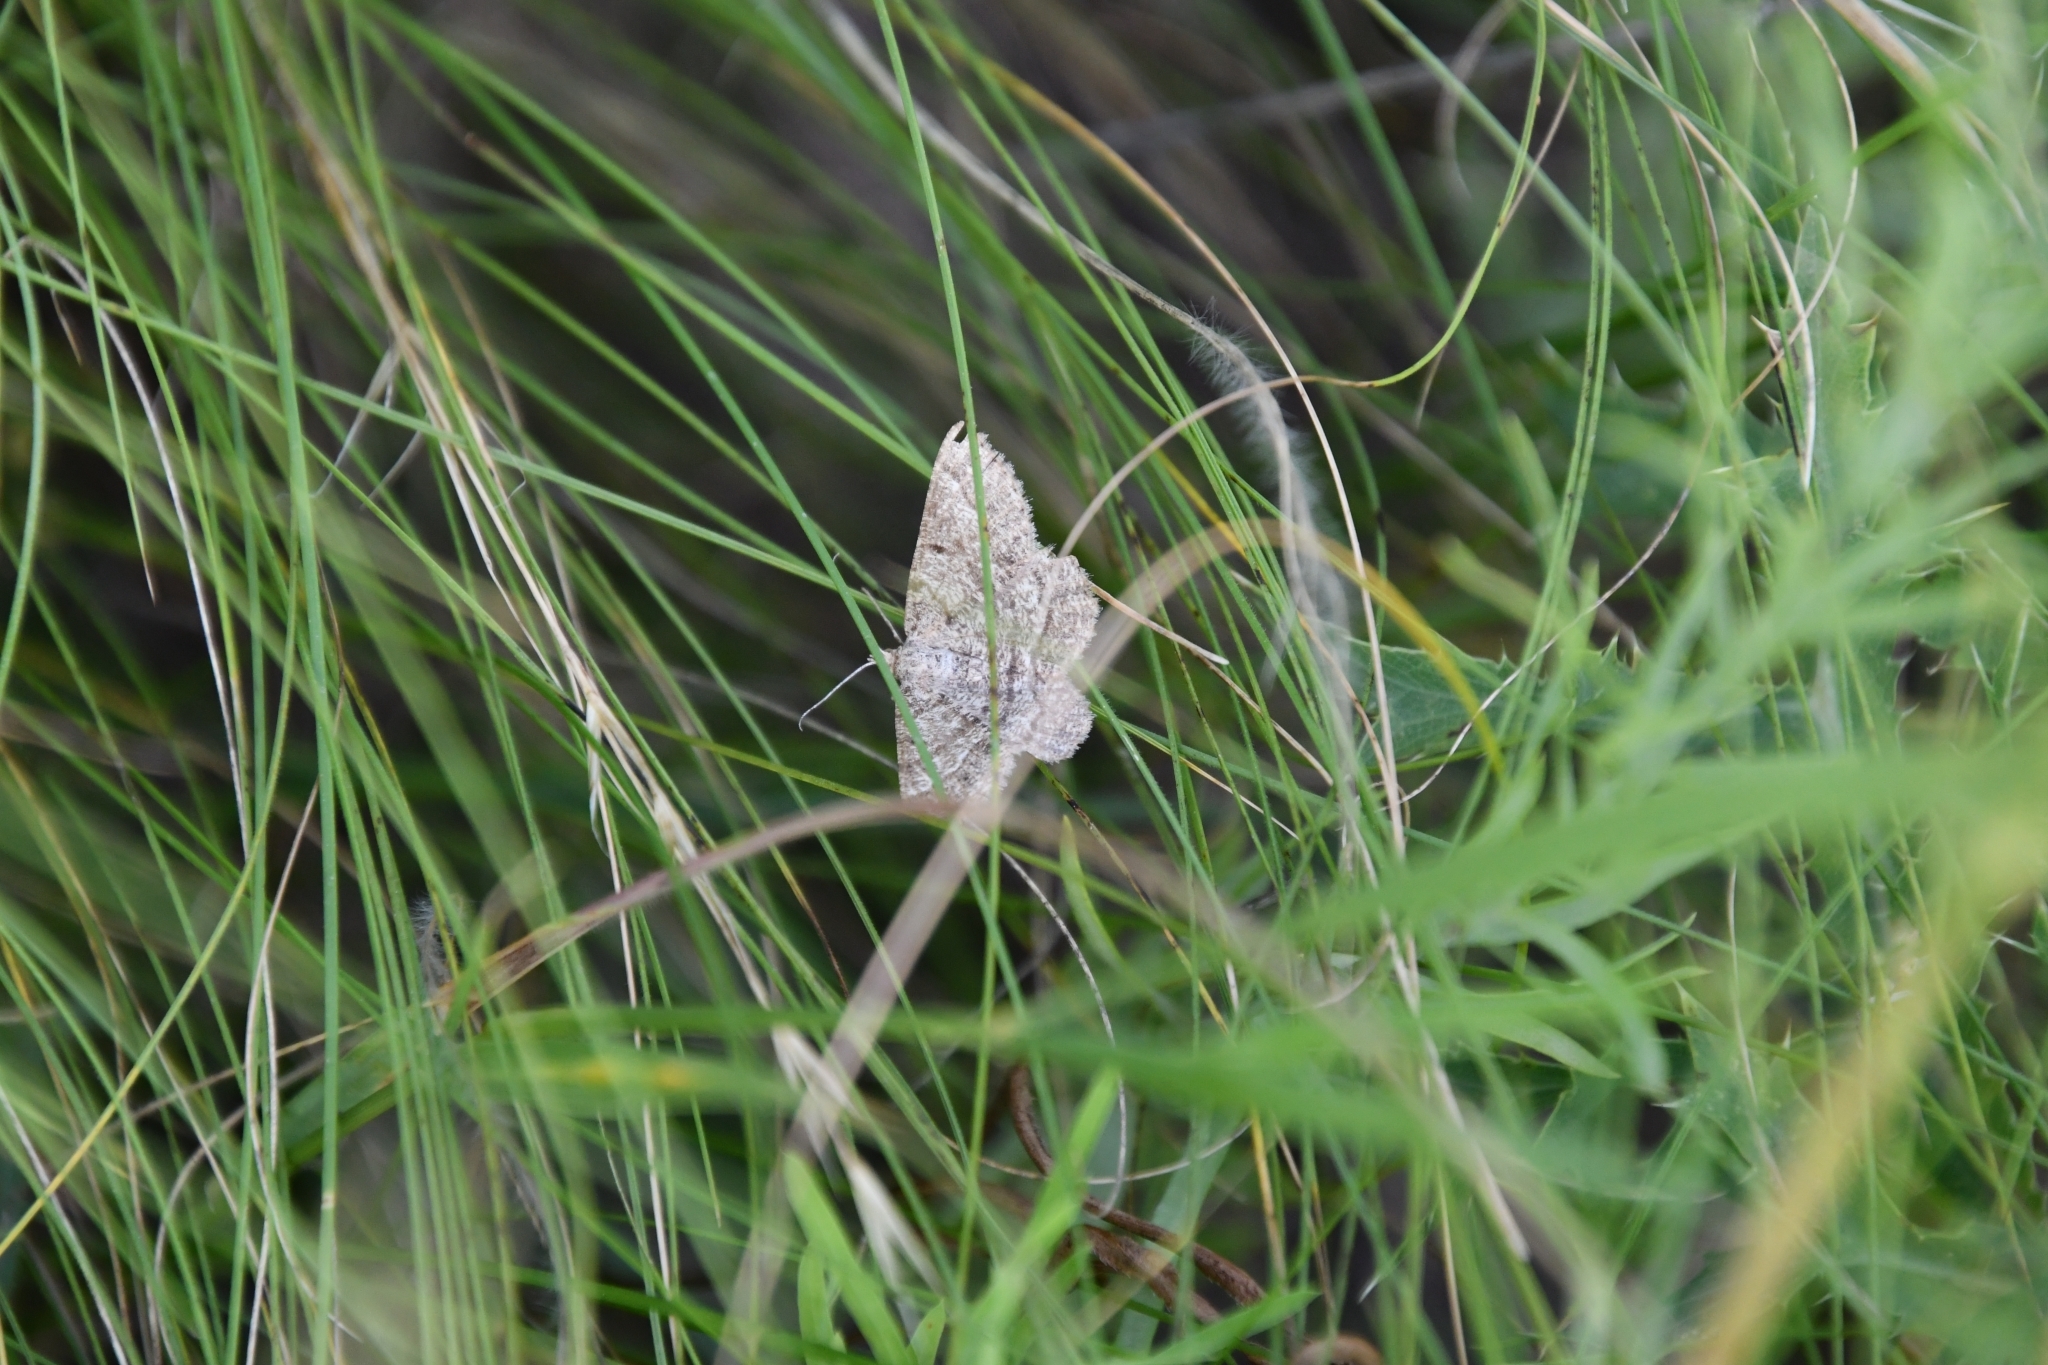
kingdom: Animalia
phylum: Arthropoda
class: Insecta
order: Lepidoptera
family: Geometridae
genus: Tephrina
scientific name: Tephrina murinaria
